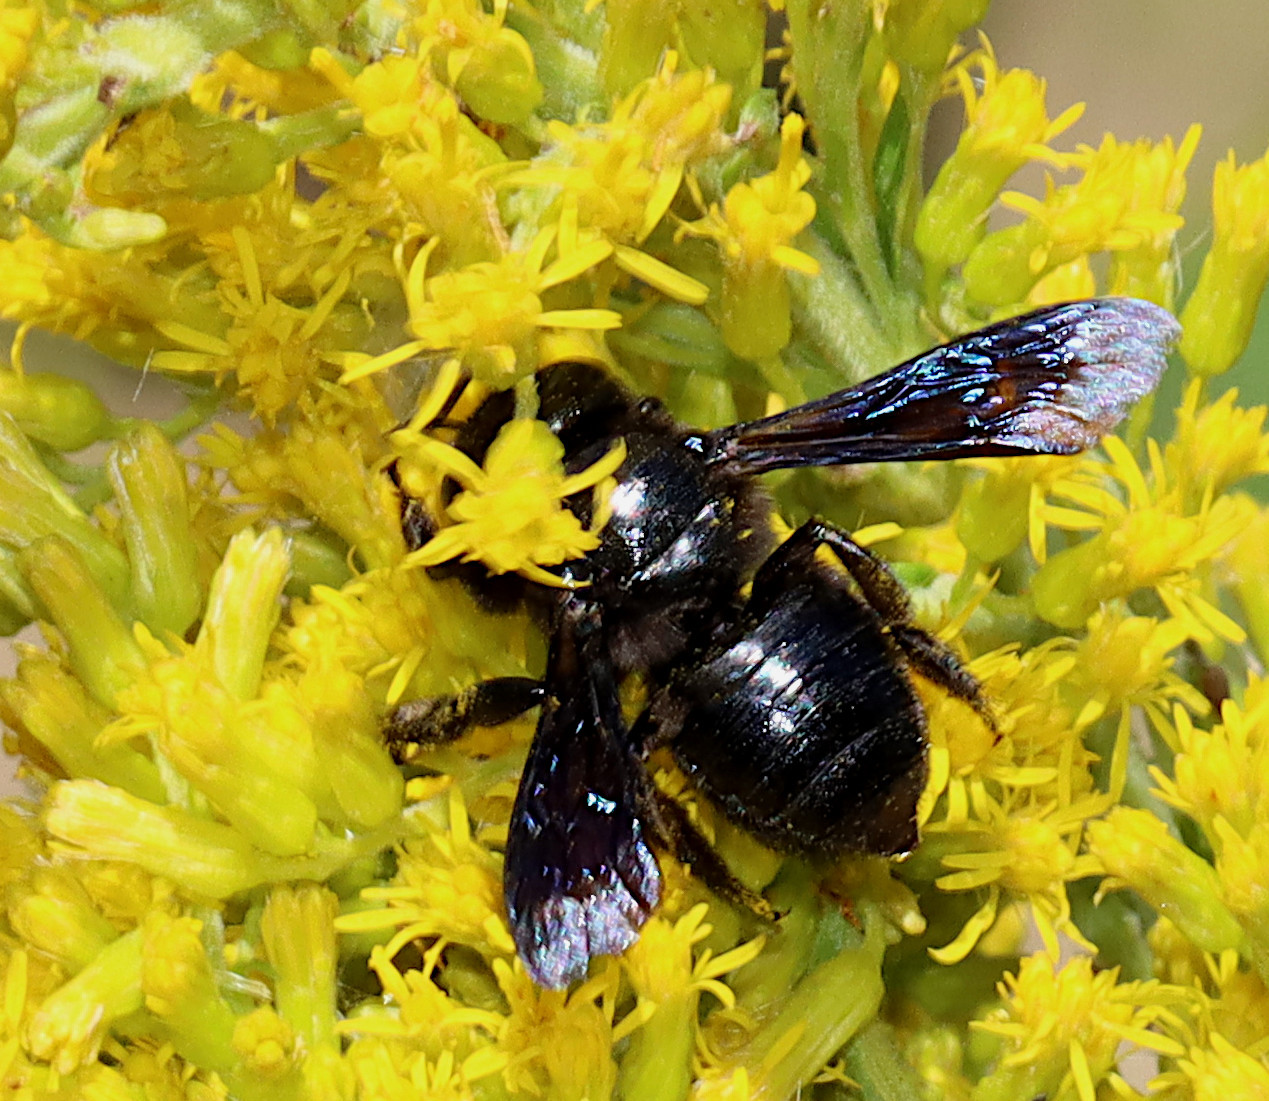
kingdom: Animalia
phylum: Arthropoda
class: Insecta
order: Hymenoptera
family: Megachilidae
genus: Megachile
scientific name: Megachile xylocopoides
